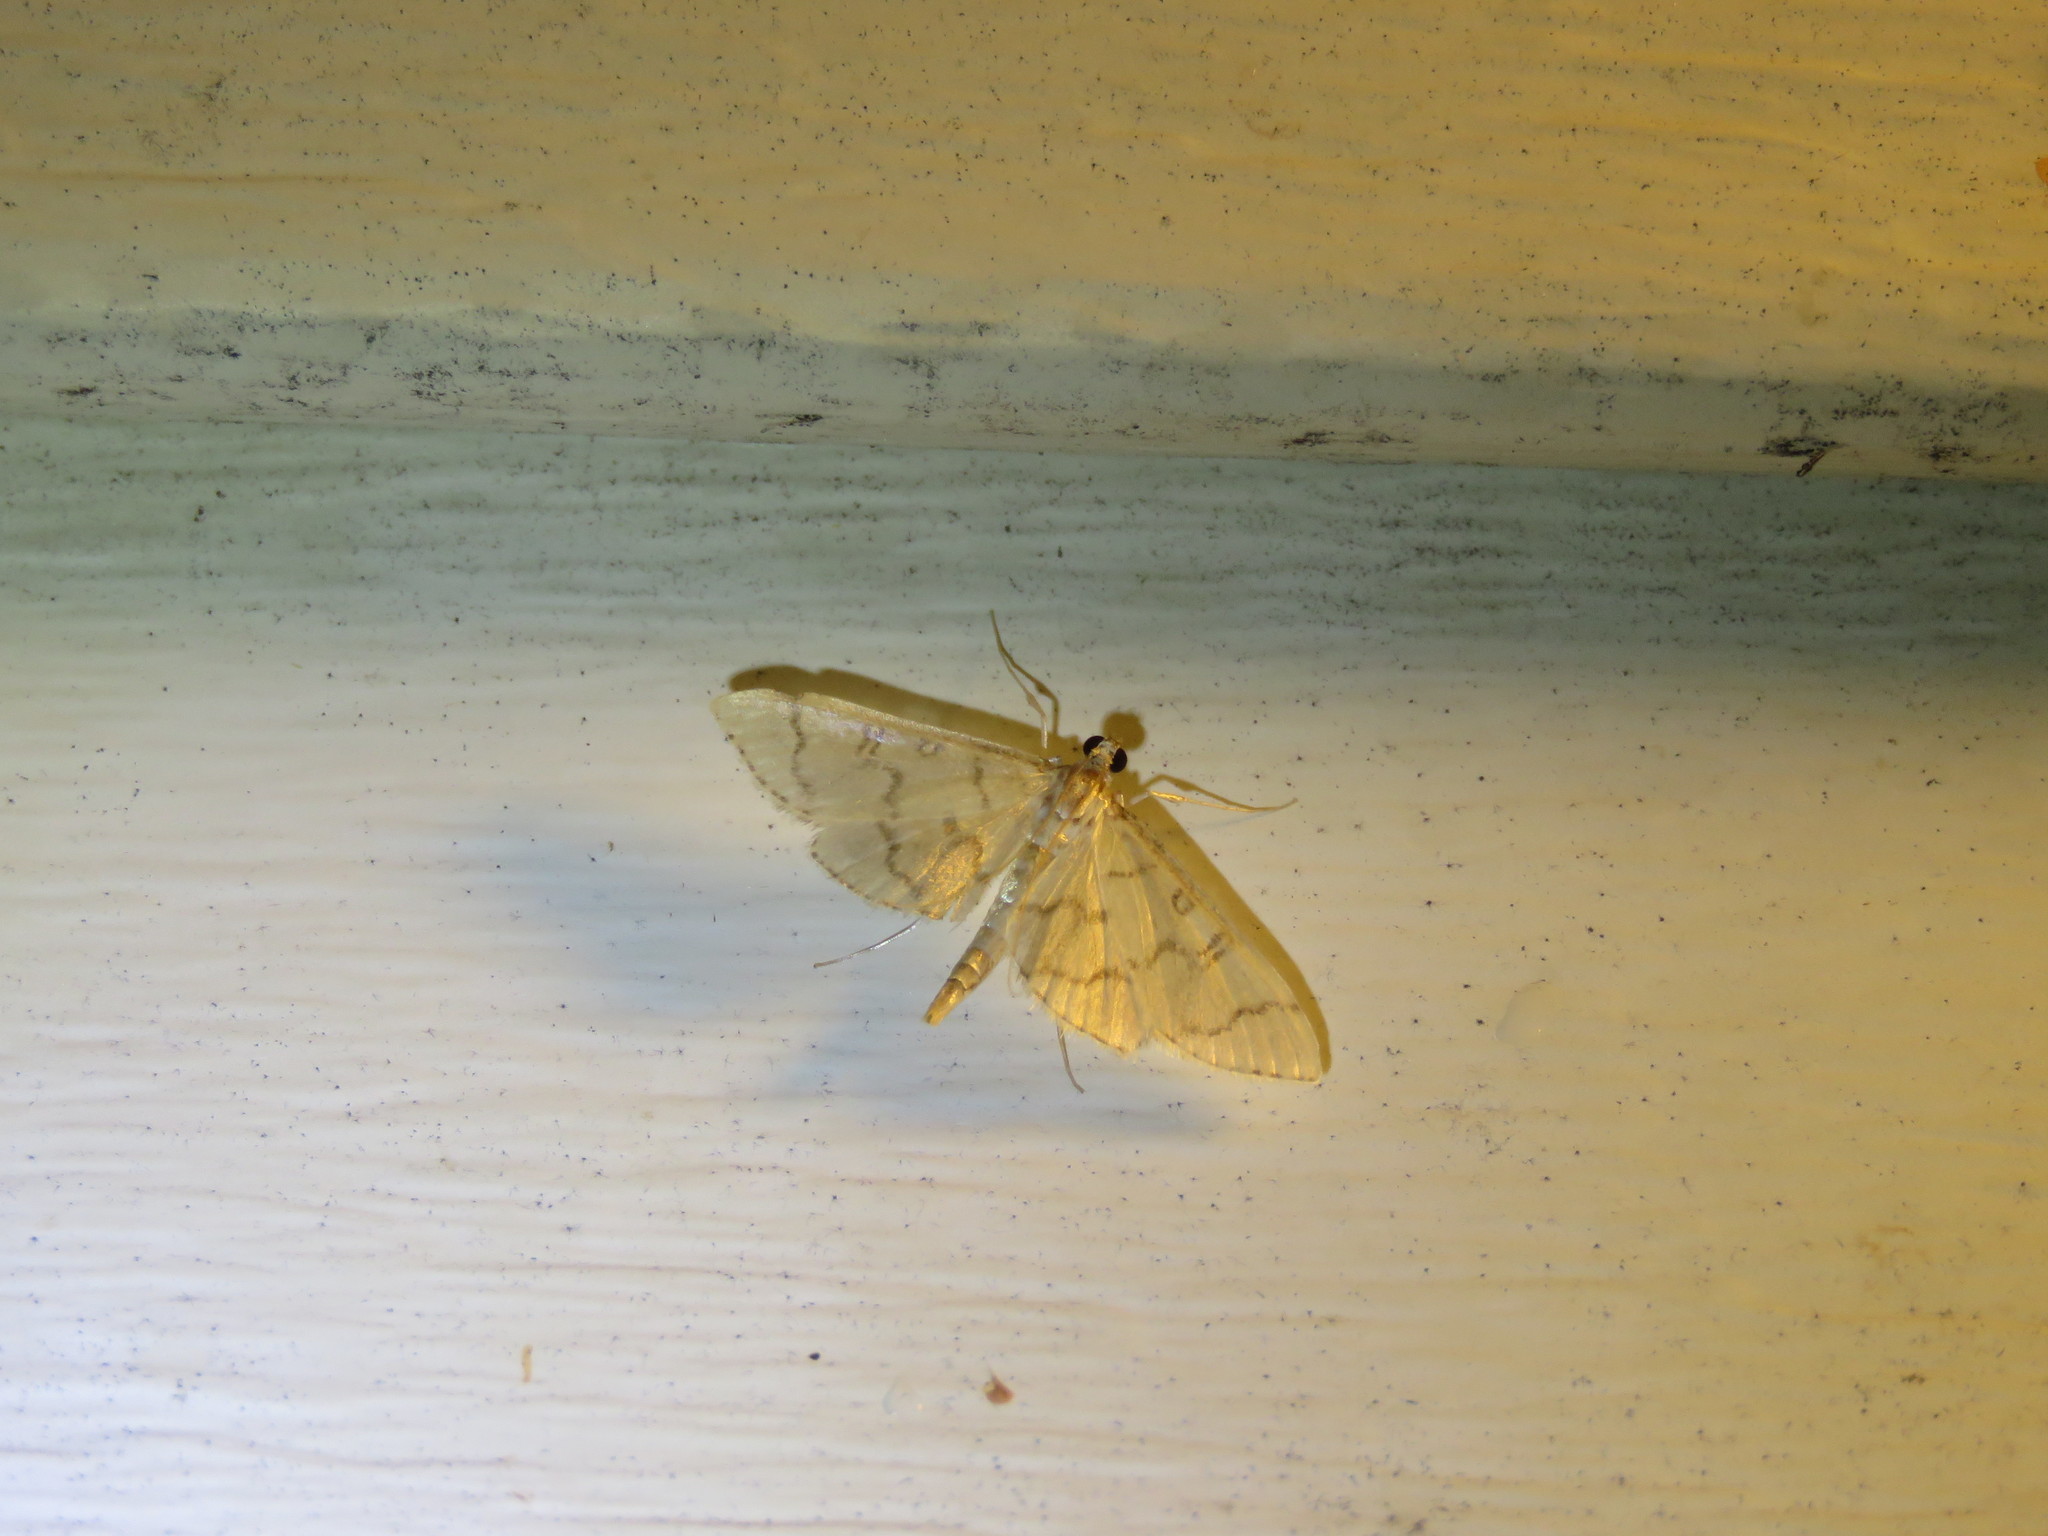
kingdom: Animalia
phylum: Arthropoda
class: Insecta
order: Lepidoptera
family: Crambidae
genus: Lamprosema
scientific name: Lamprosema Blepharomastix ranalis
